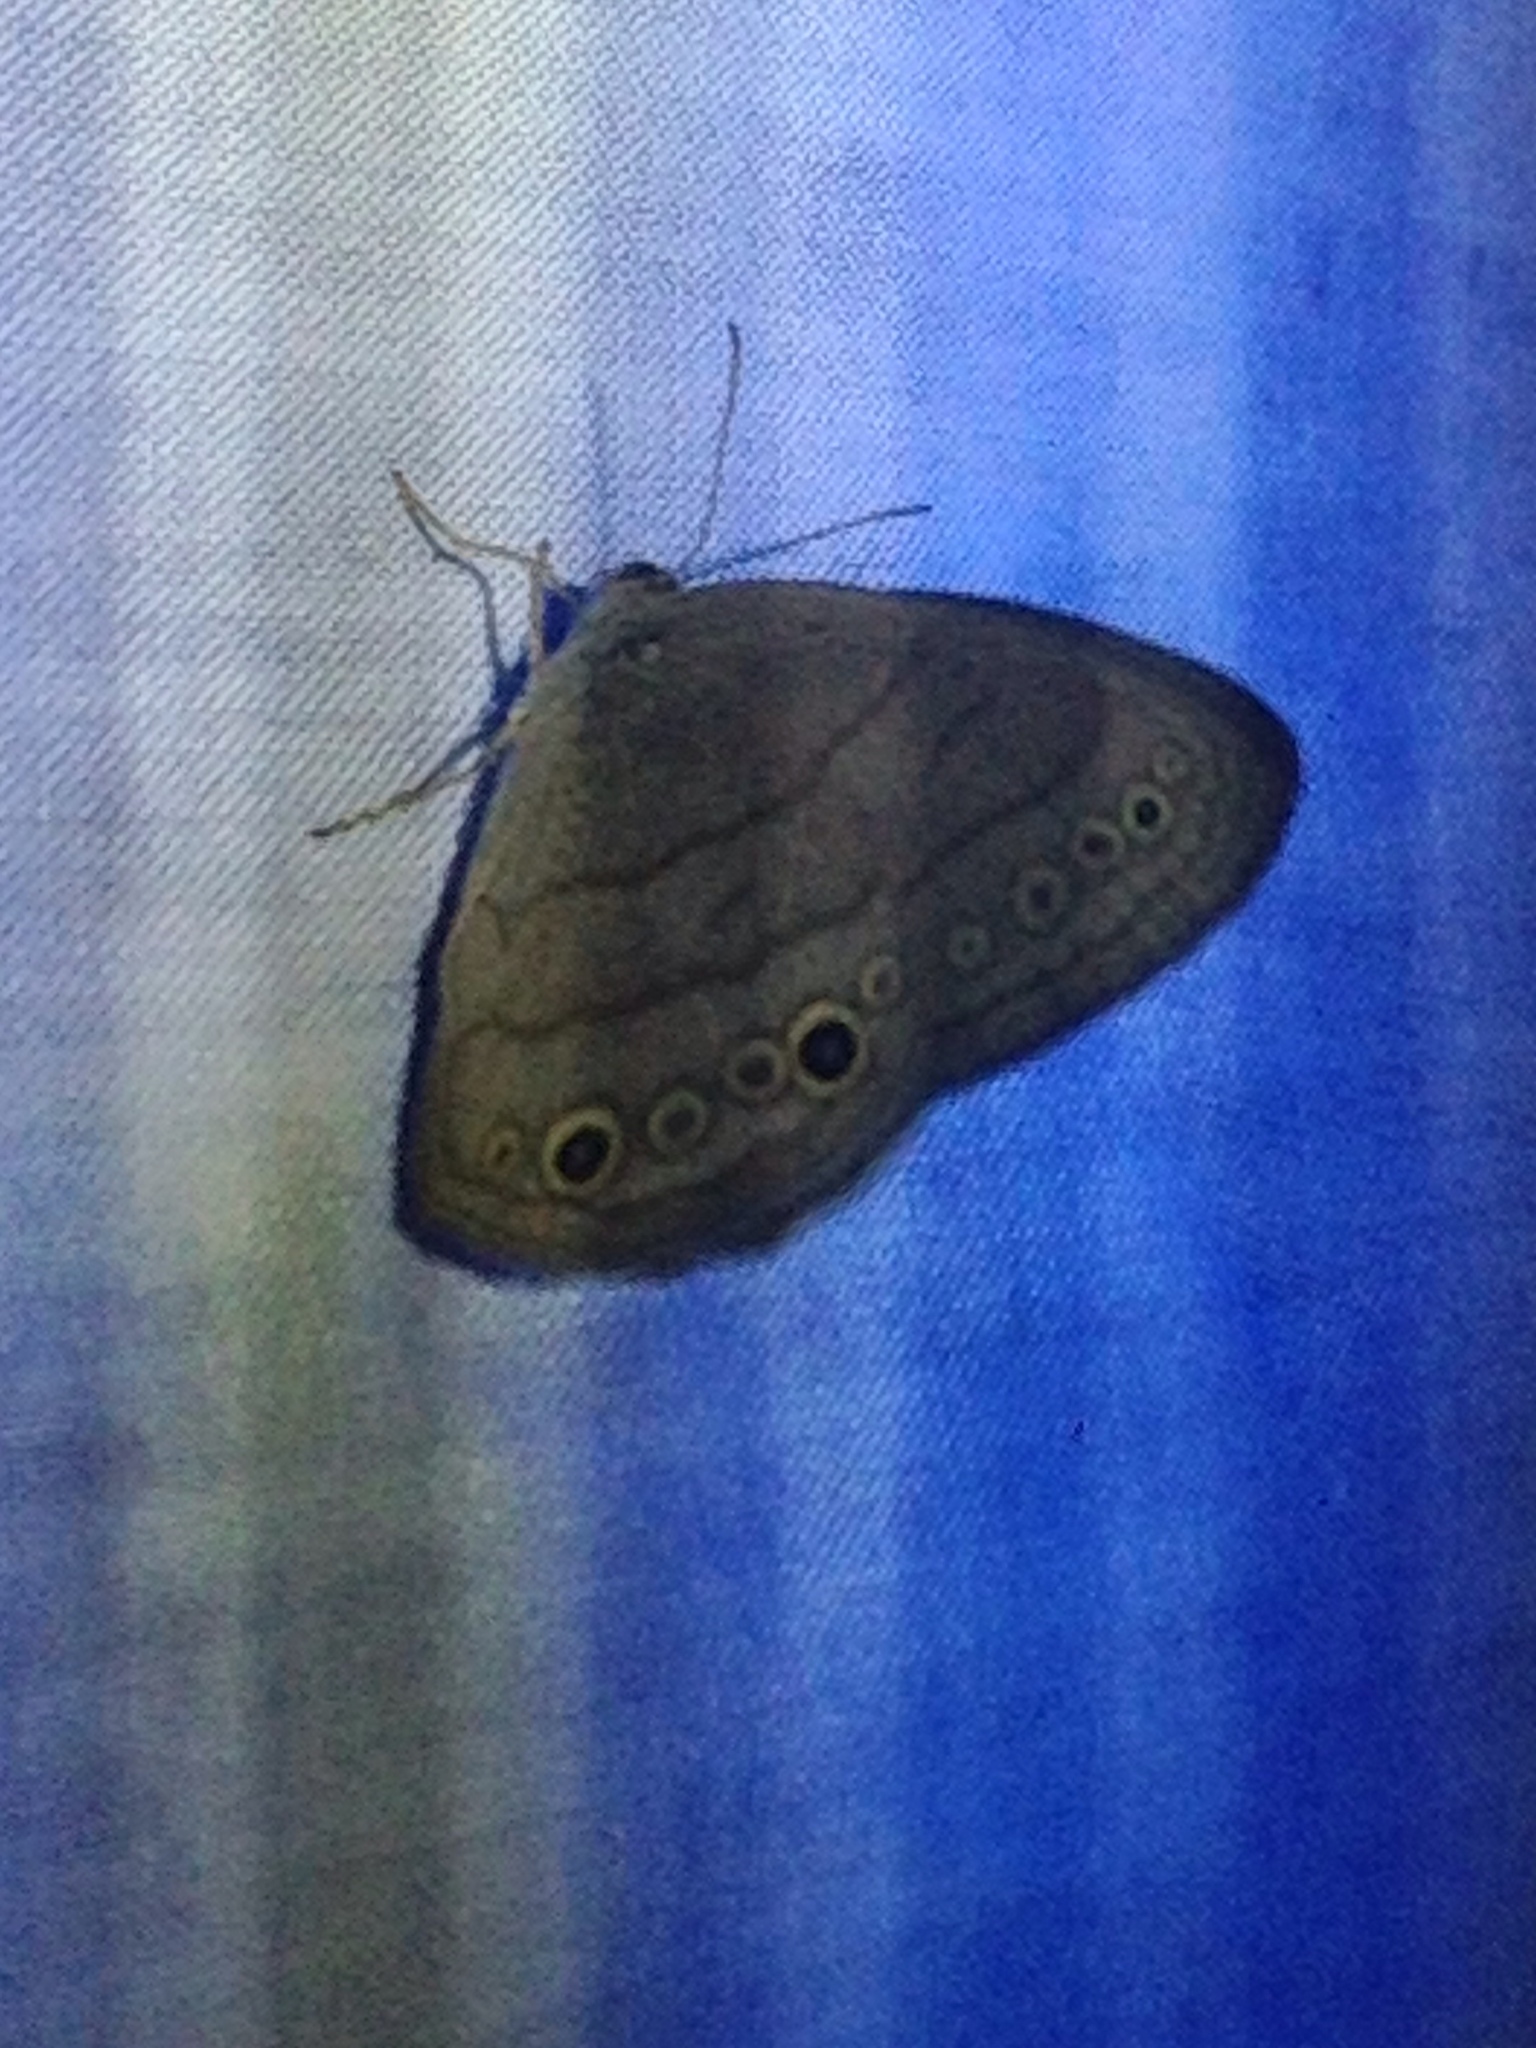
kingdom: Animalia
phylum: Arthropoda
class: Insecta
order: Lepidoptera
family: Nymphalidae
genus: Hermeuptychia
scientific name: Hermeuptychia hermes
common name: Hermes satyr
